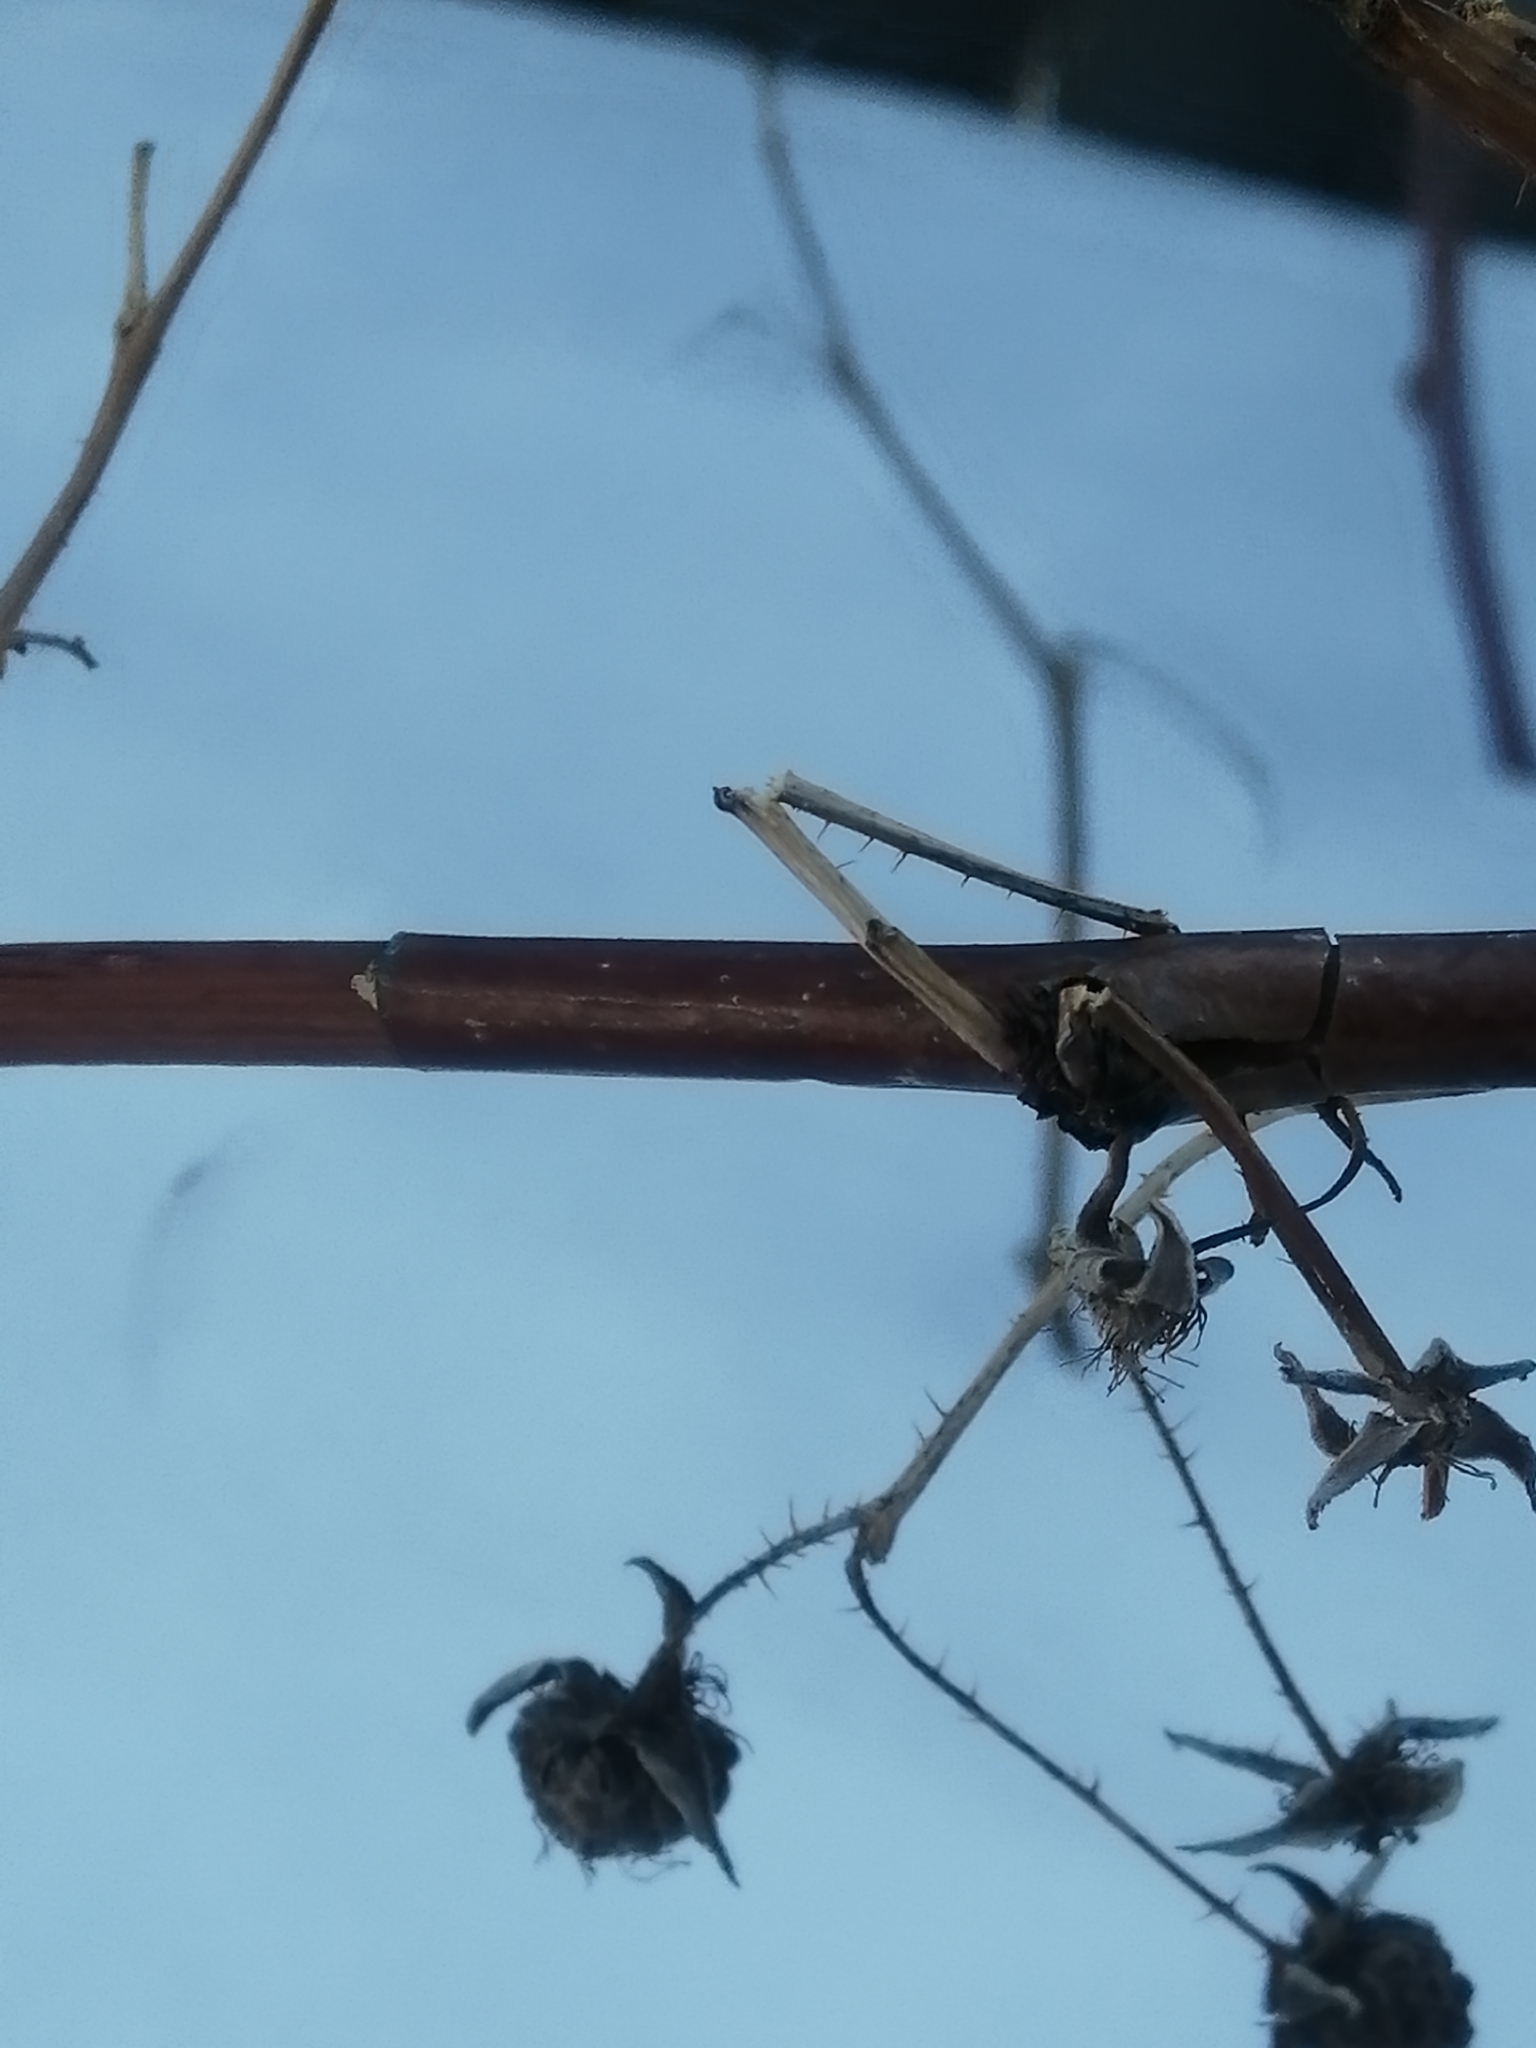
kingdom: Plantae
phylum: Tracheophyta
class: Magnoliopsida
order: Rosales
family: Rosaceae
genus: Rubus
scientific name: Rubus idaeus
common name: Raspberry
